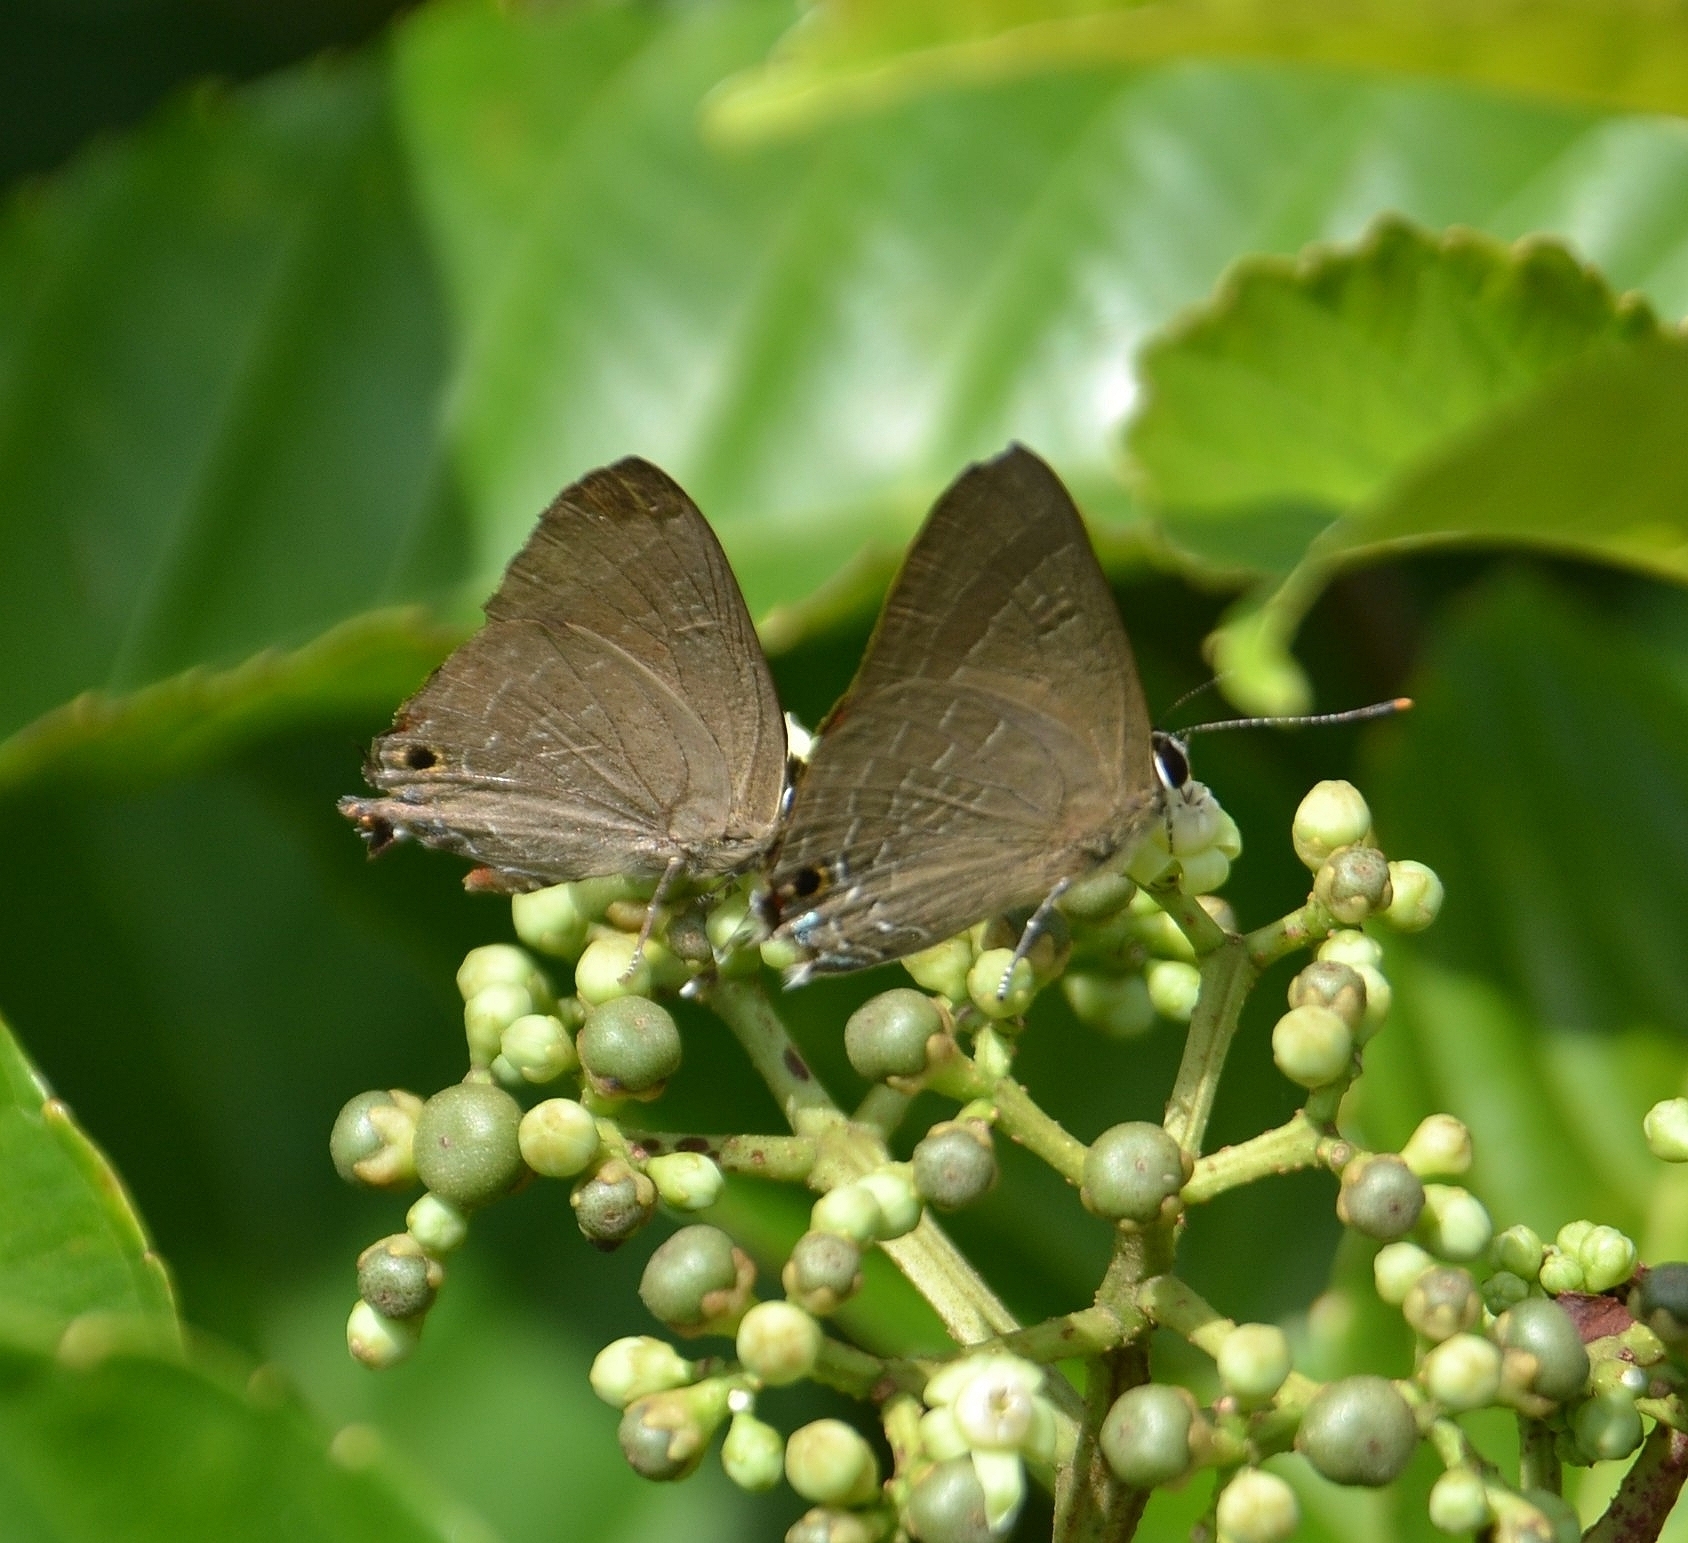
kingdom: Animalia
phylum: Arthropoda
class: Insecta
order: Lepidoptera
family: Lycaenidae
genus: Deudorix
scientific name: Deudorix epijarbas
